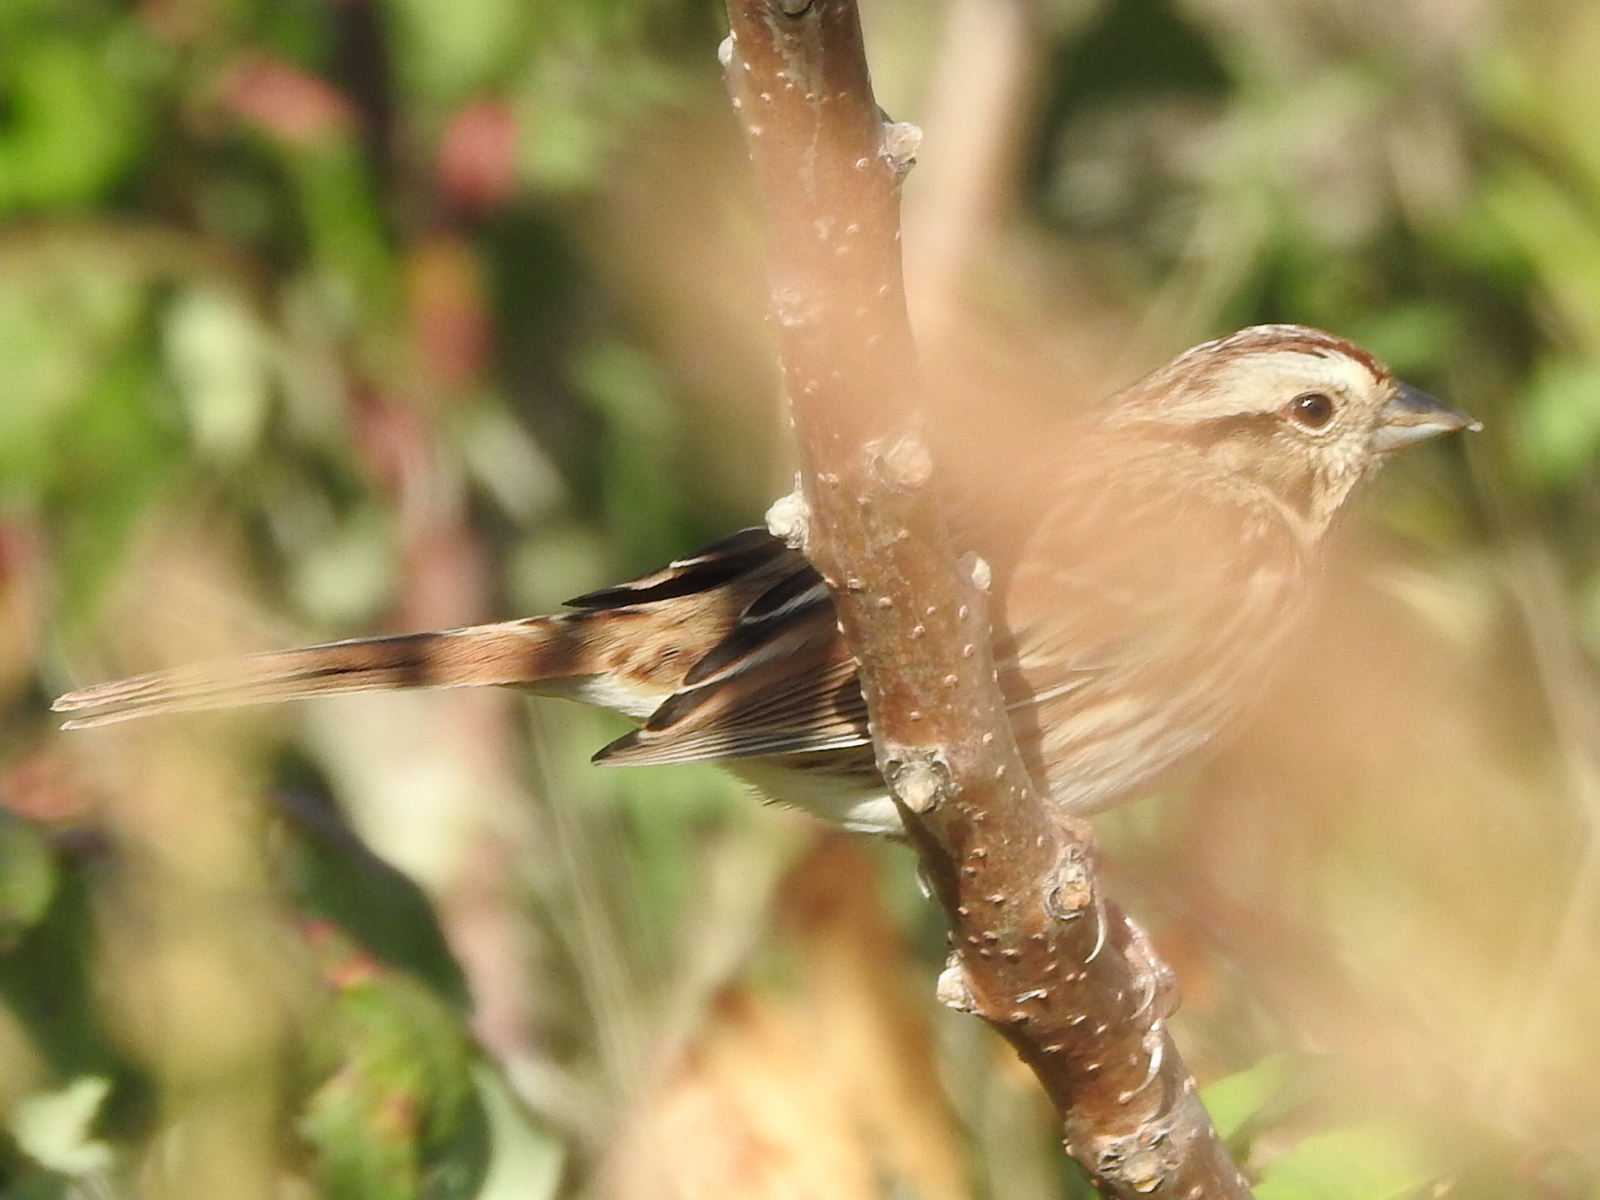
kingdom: Animalia
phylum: Chordata
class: Aves
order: Passeriformes
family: Passerellidae
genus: Melospiza
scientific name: Melospiza melodia
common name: Song sparrow
